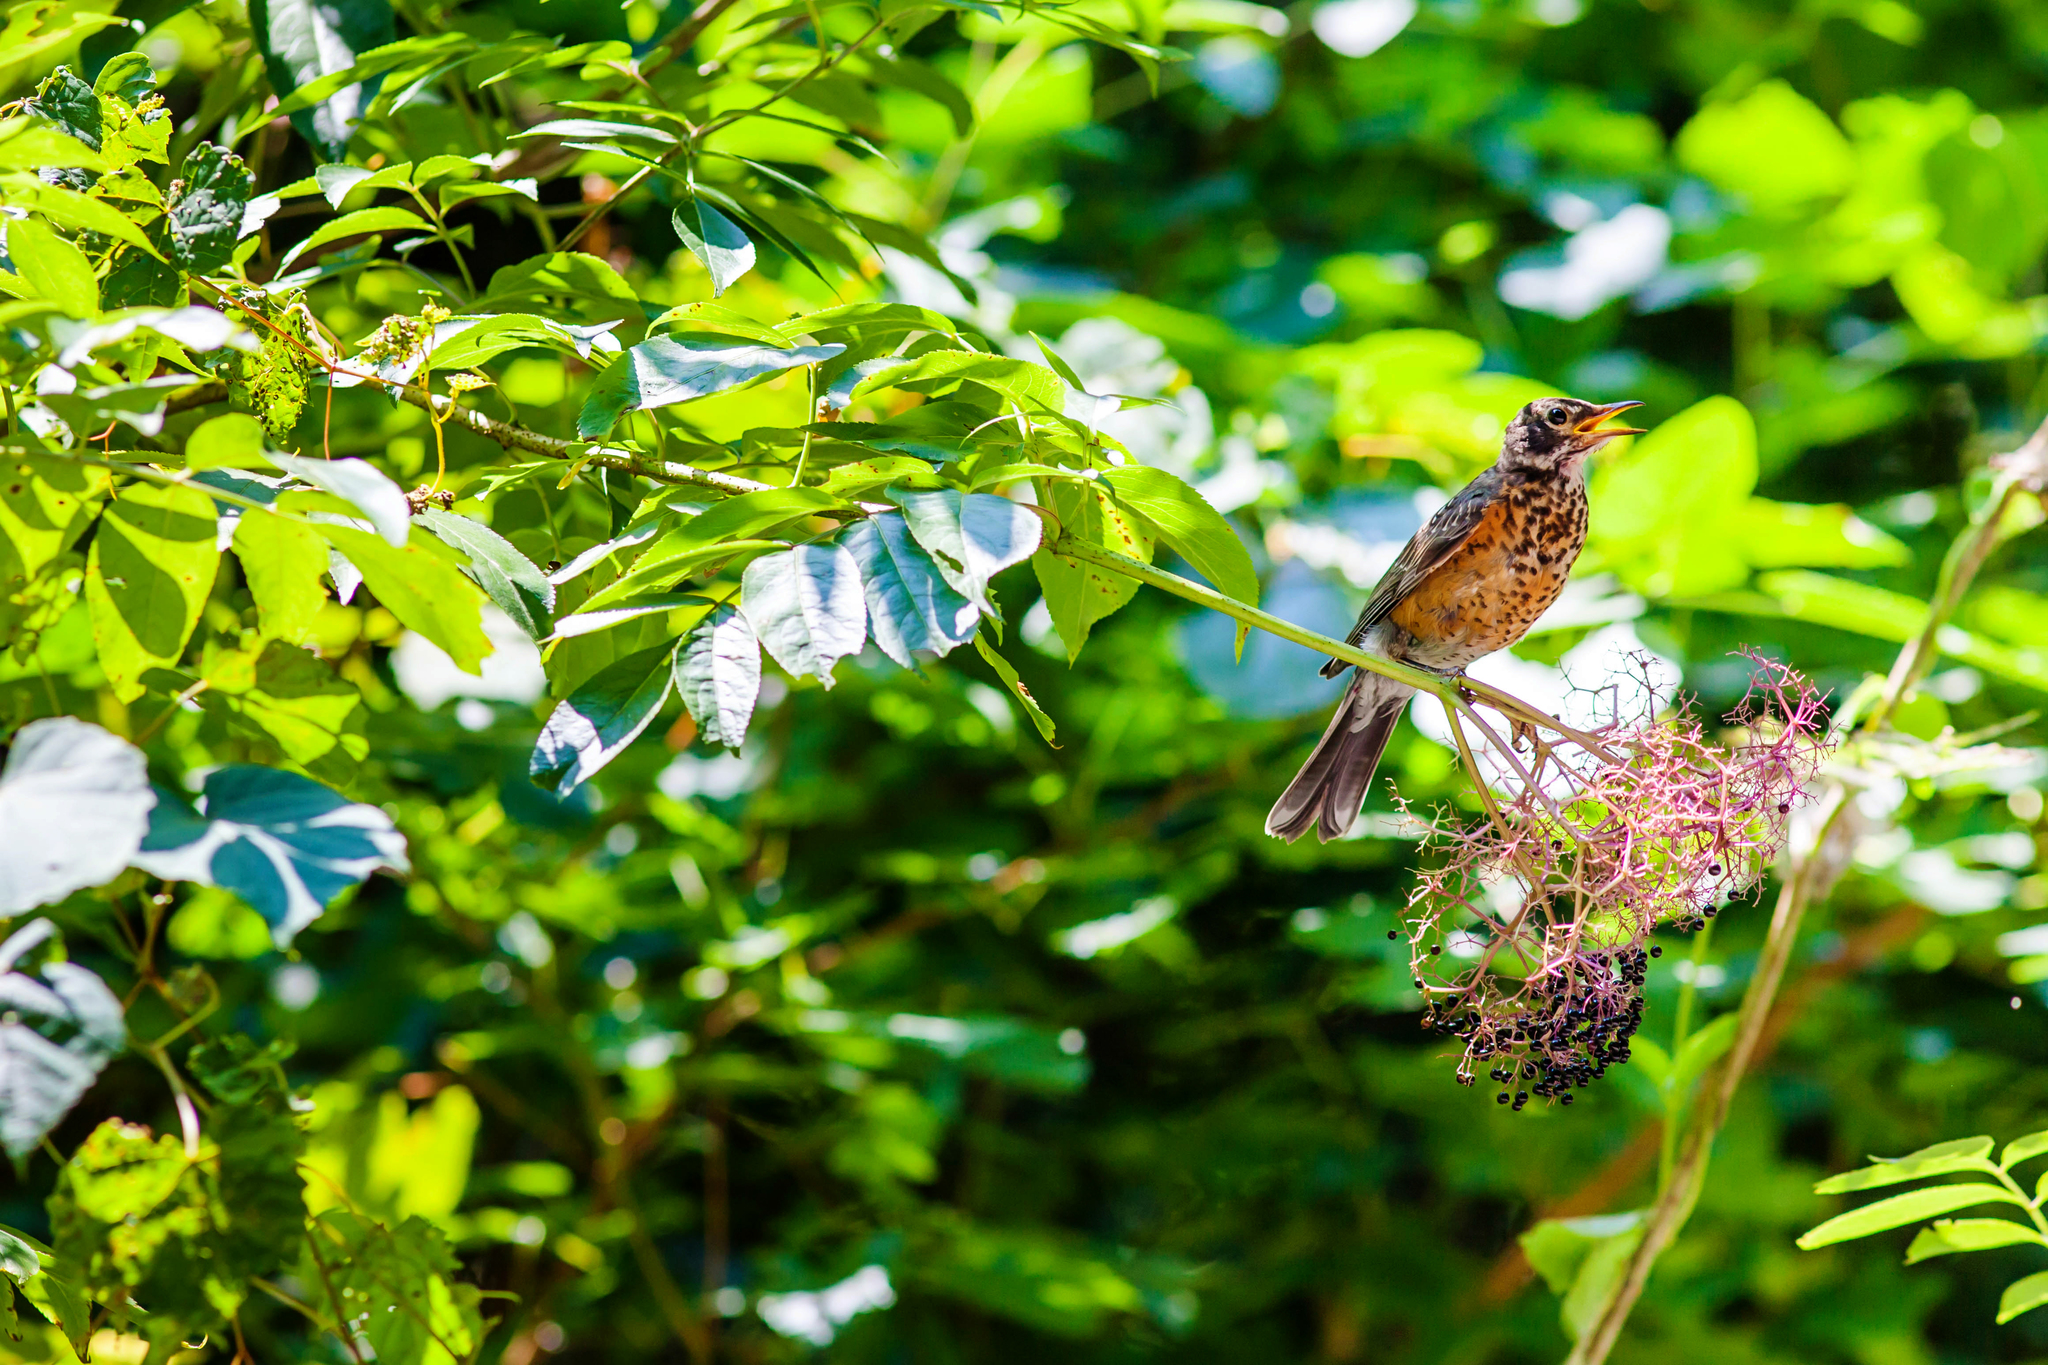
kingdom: Animalia
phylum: Chordata
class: Aves
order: Passeriformes
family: Turdidae
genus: Turdus
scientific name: Turdus migratorius
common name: American robin
